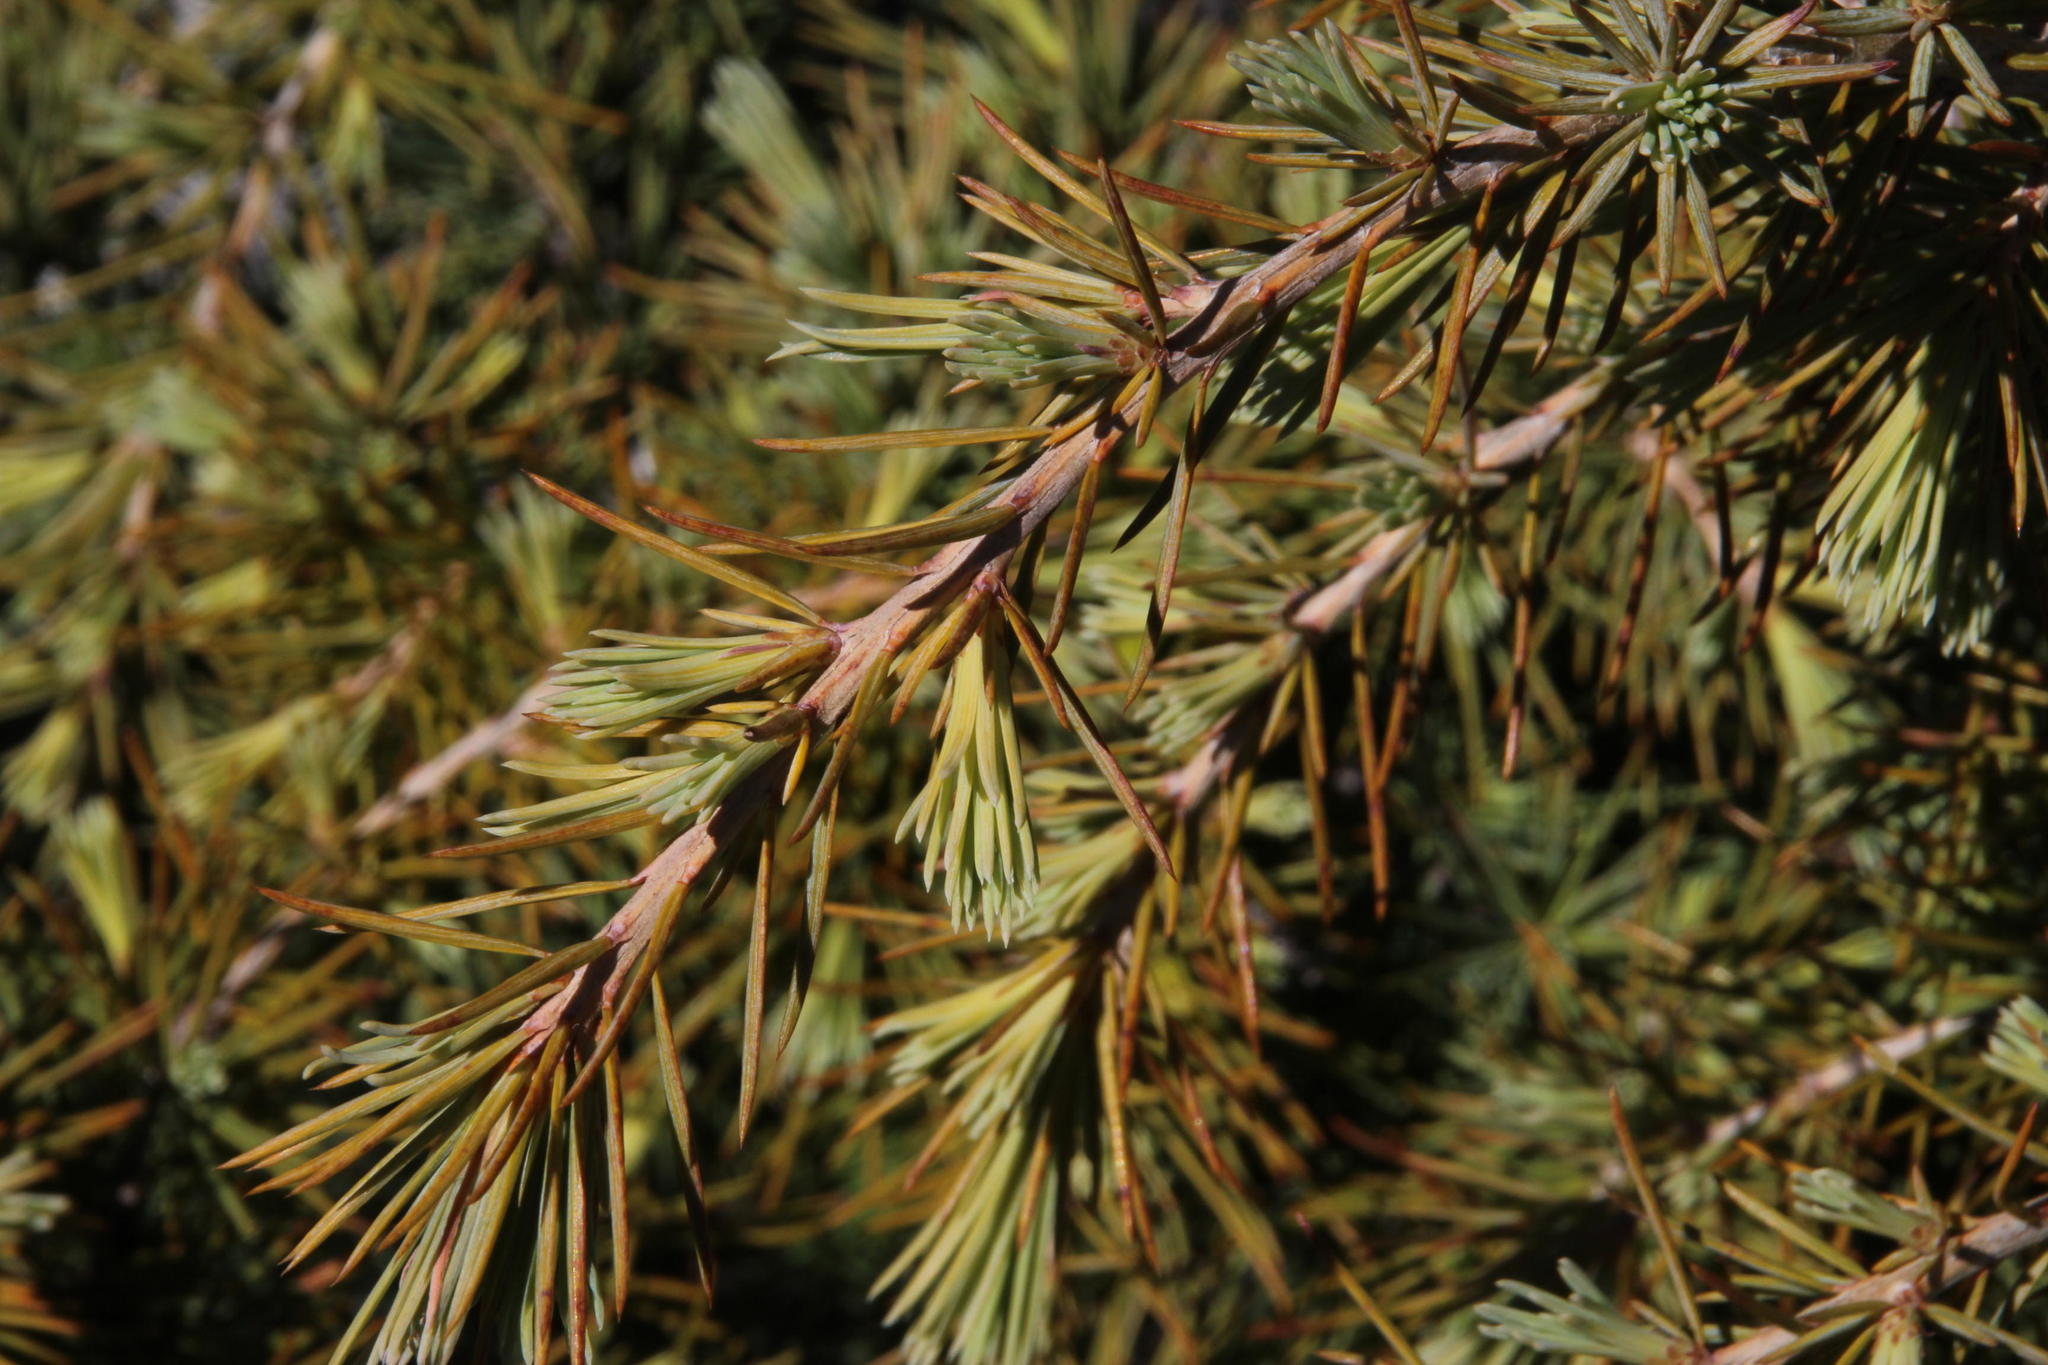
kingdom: Plantae
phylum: Tracheophyta
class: Pinopsida
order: Pinales
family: Pinaceae
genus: Cedrus
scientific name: Cedrus libani
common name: Cedar-of-lebanon
